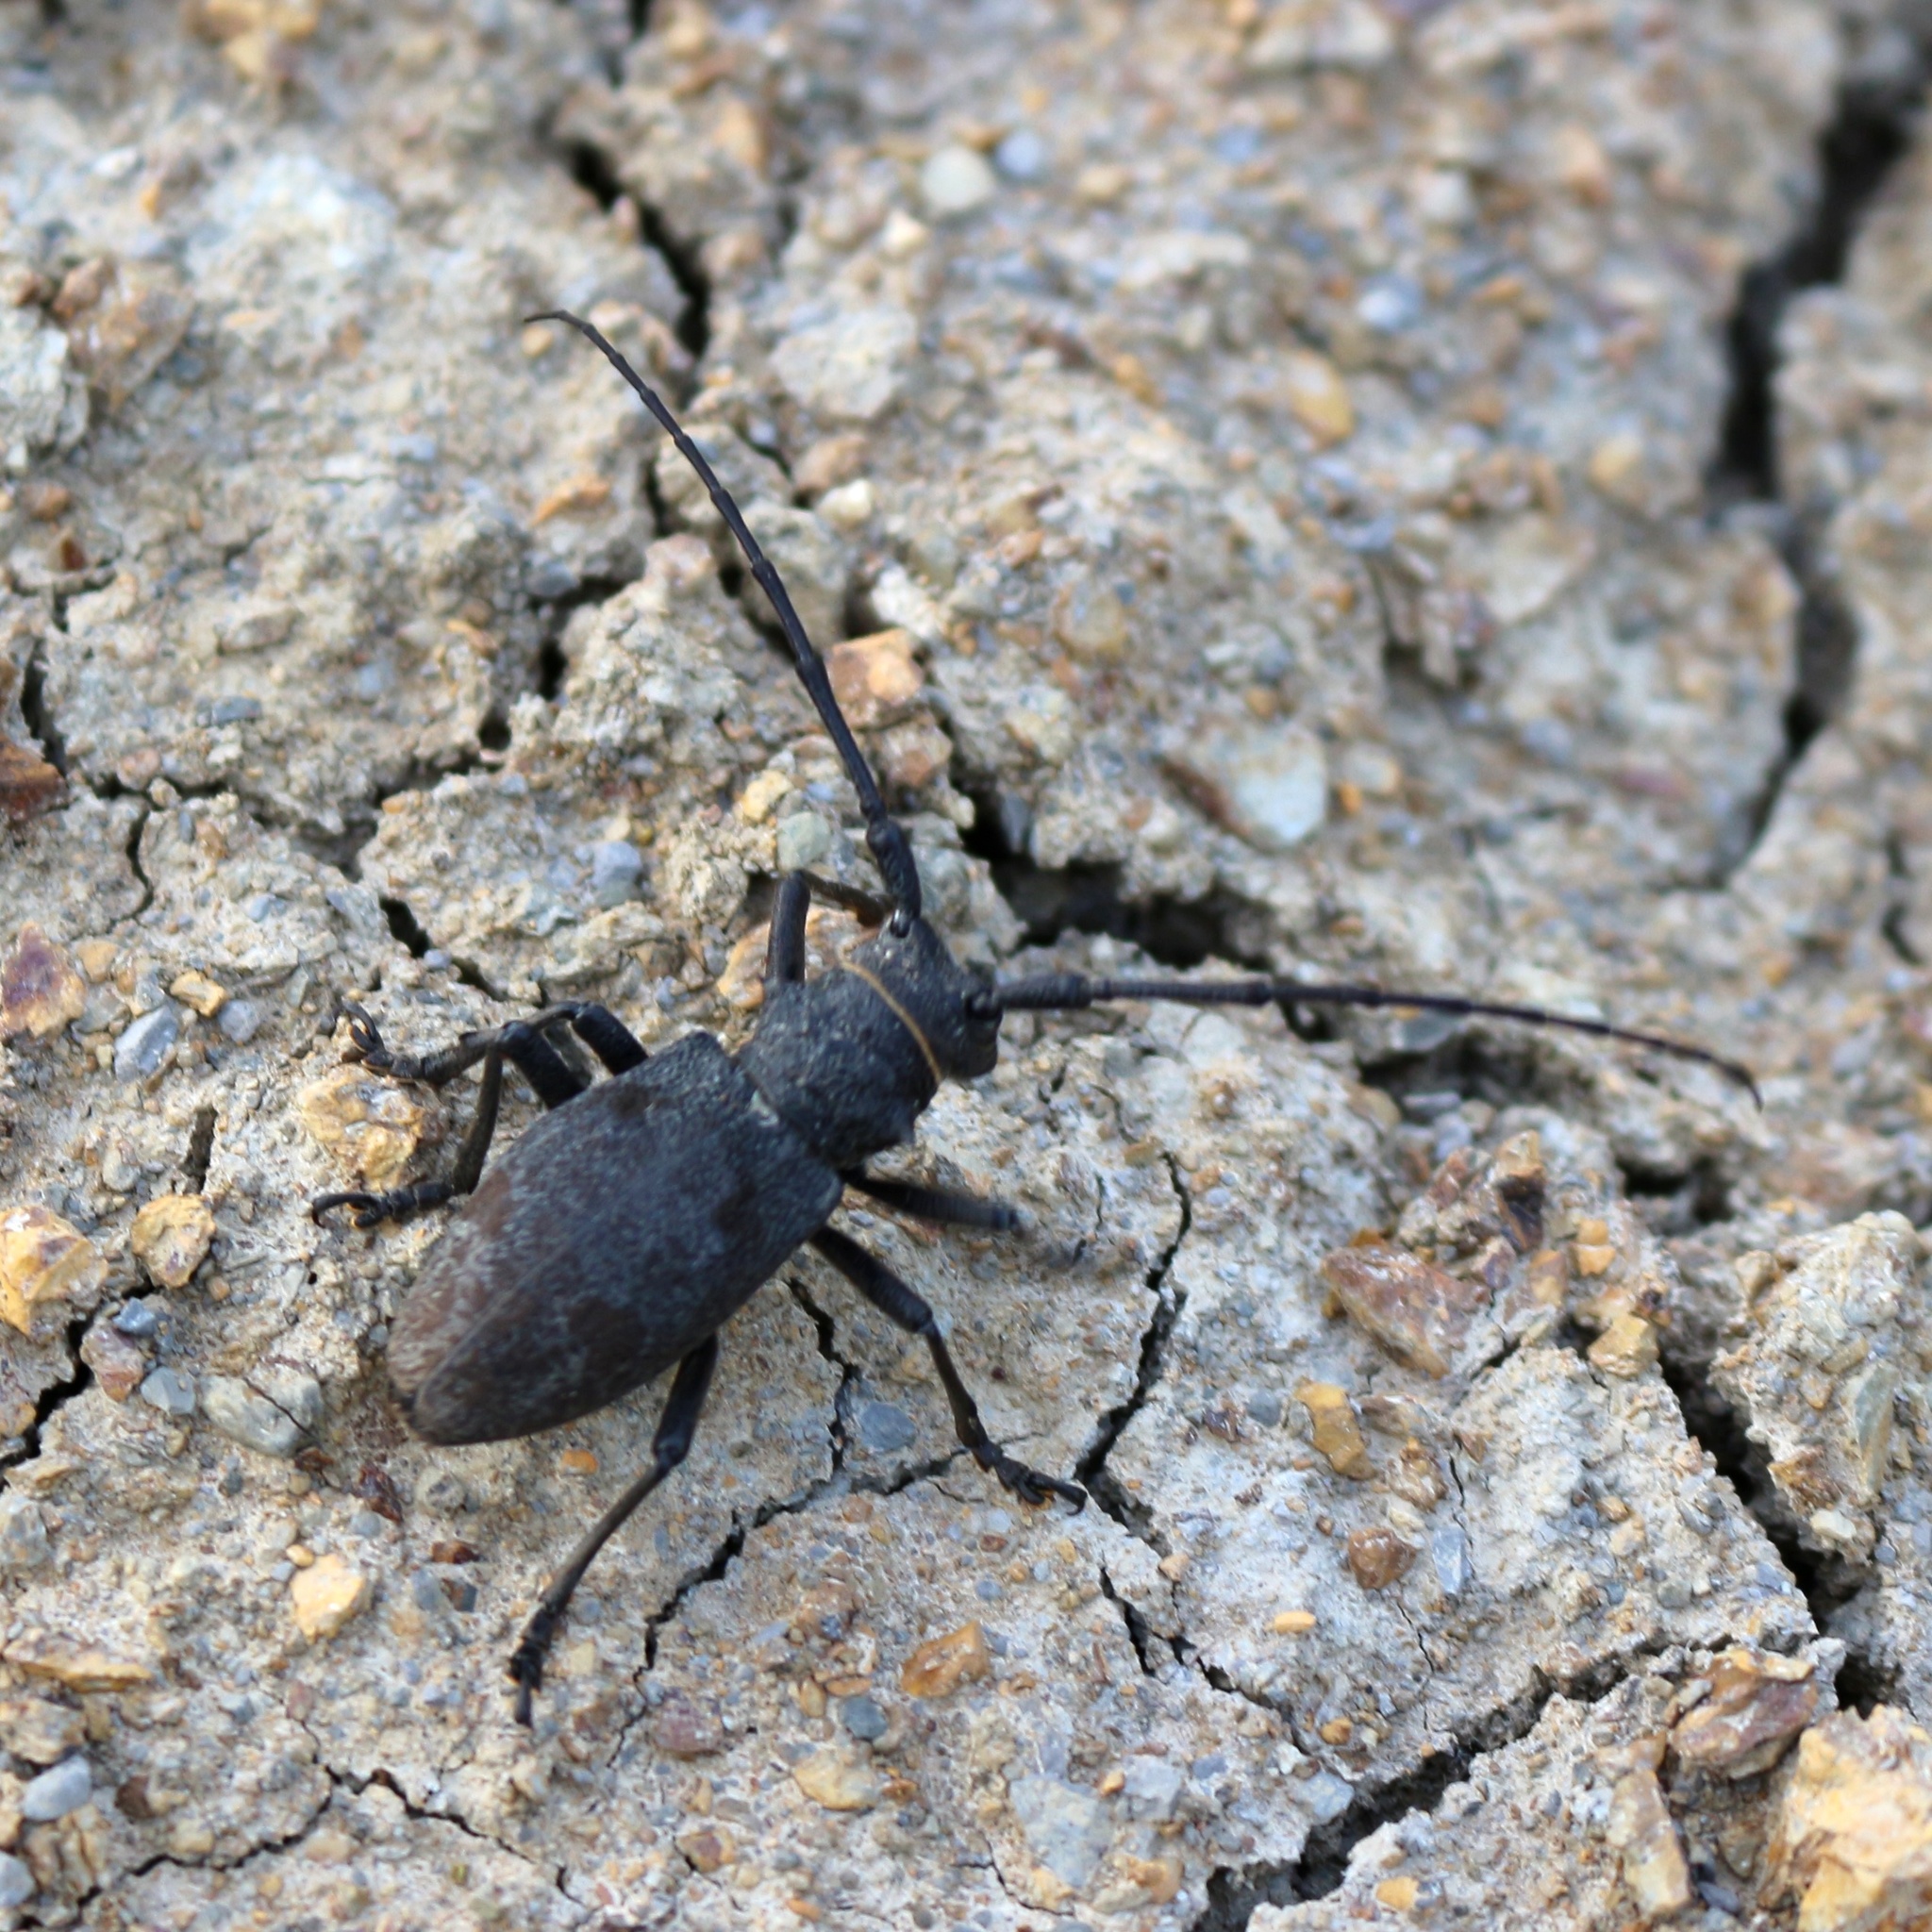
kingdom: Animalia
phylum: Arthropoda
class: Insecta
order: Coleoptera
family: Cerambycidae
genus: Morimus
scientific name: Morimus verecundus
